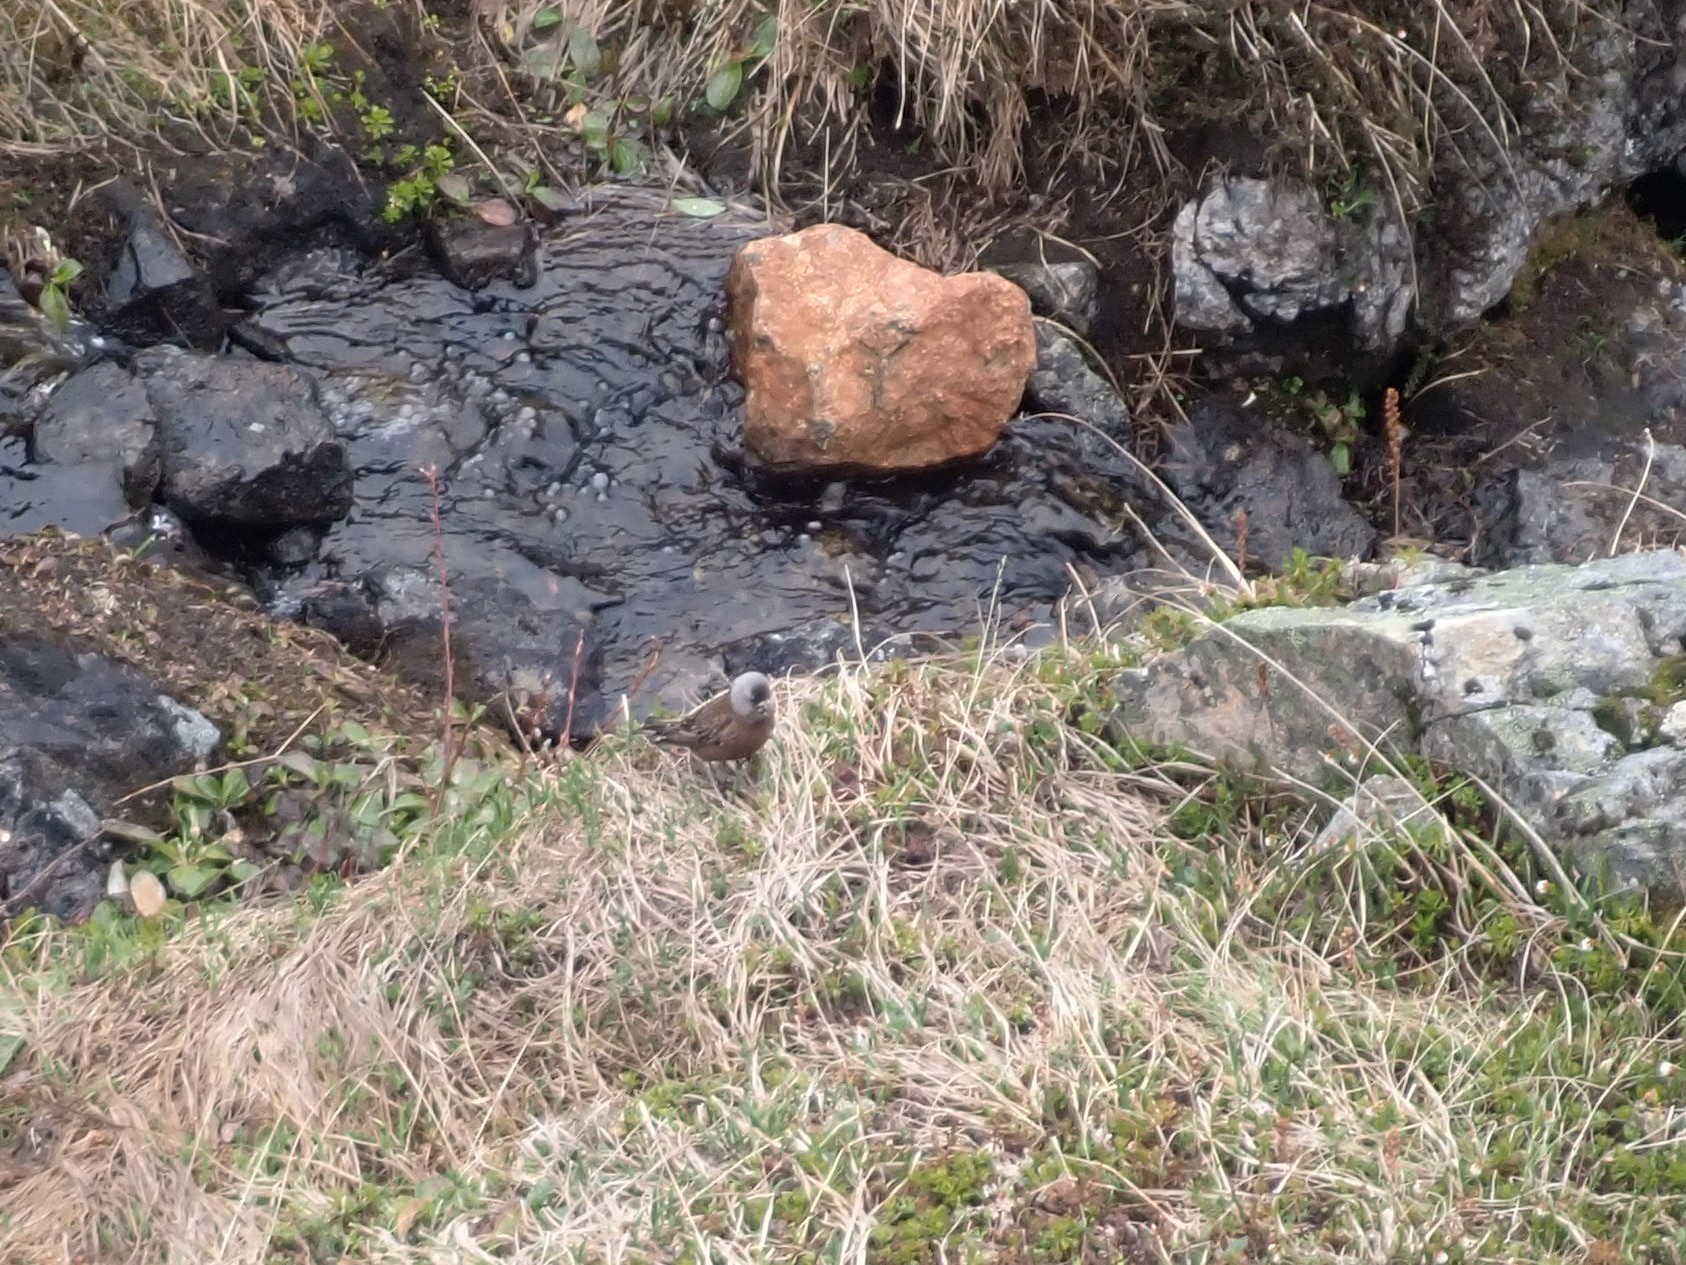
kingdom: Animalia
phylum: Chordata
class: Aves
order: Passeriformes
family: Fringillidae
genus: Leucosticte
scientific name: Leucosticte tephrocotis
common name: Gray-crowned rosy-finch
